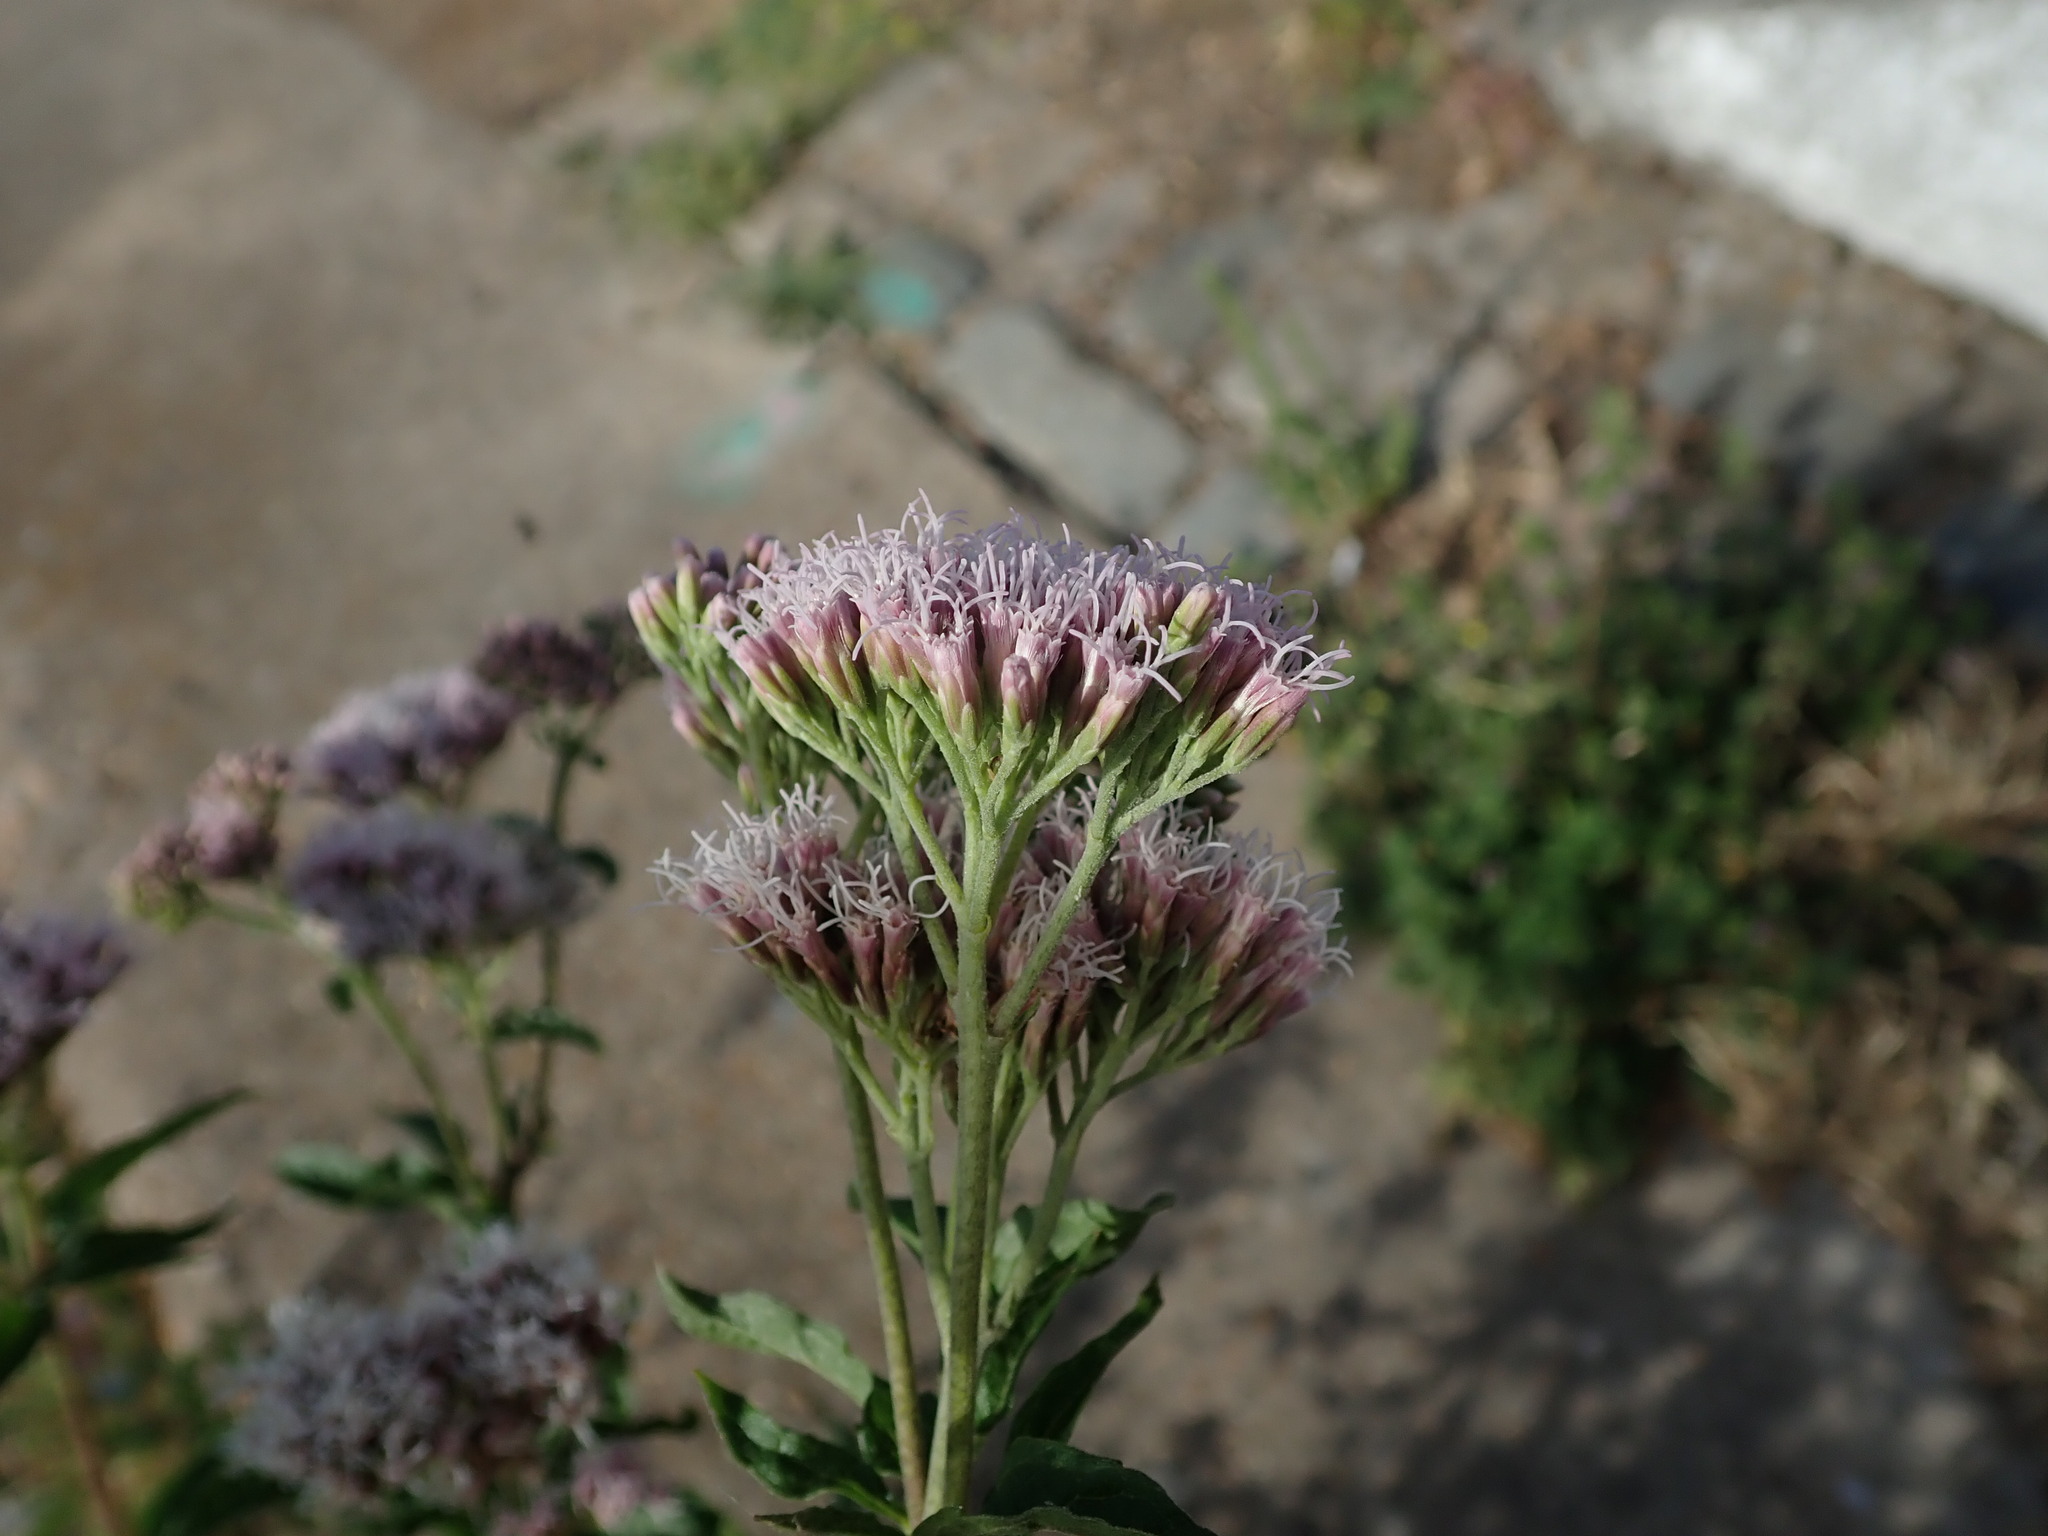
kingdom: Plantae
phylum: Tracheophyta
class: Magnoliopsida
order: Asterales
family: Asteraceae
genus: Eupatorium
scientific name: Eupatorium cannabinum
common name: Hemp-agrimony
